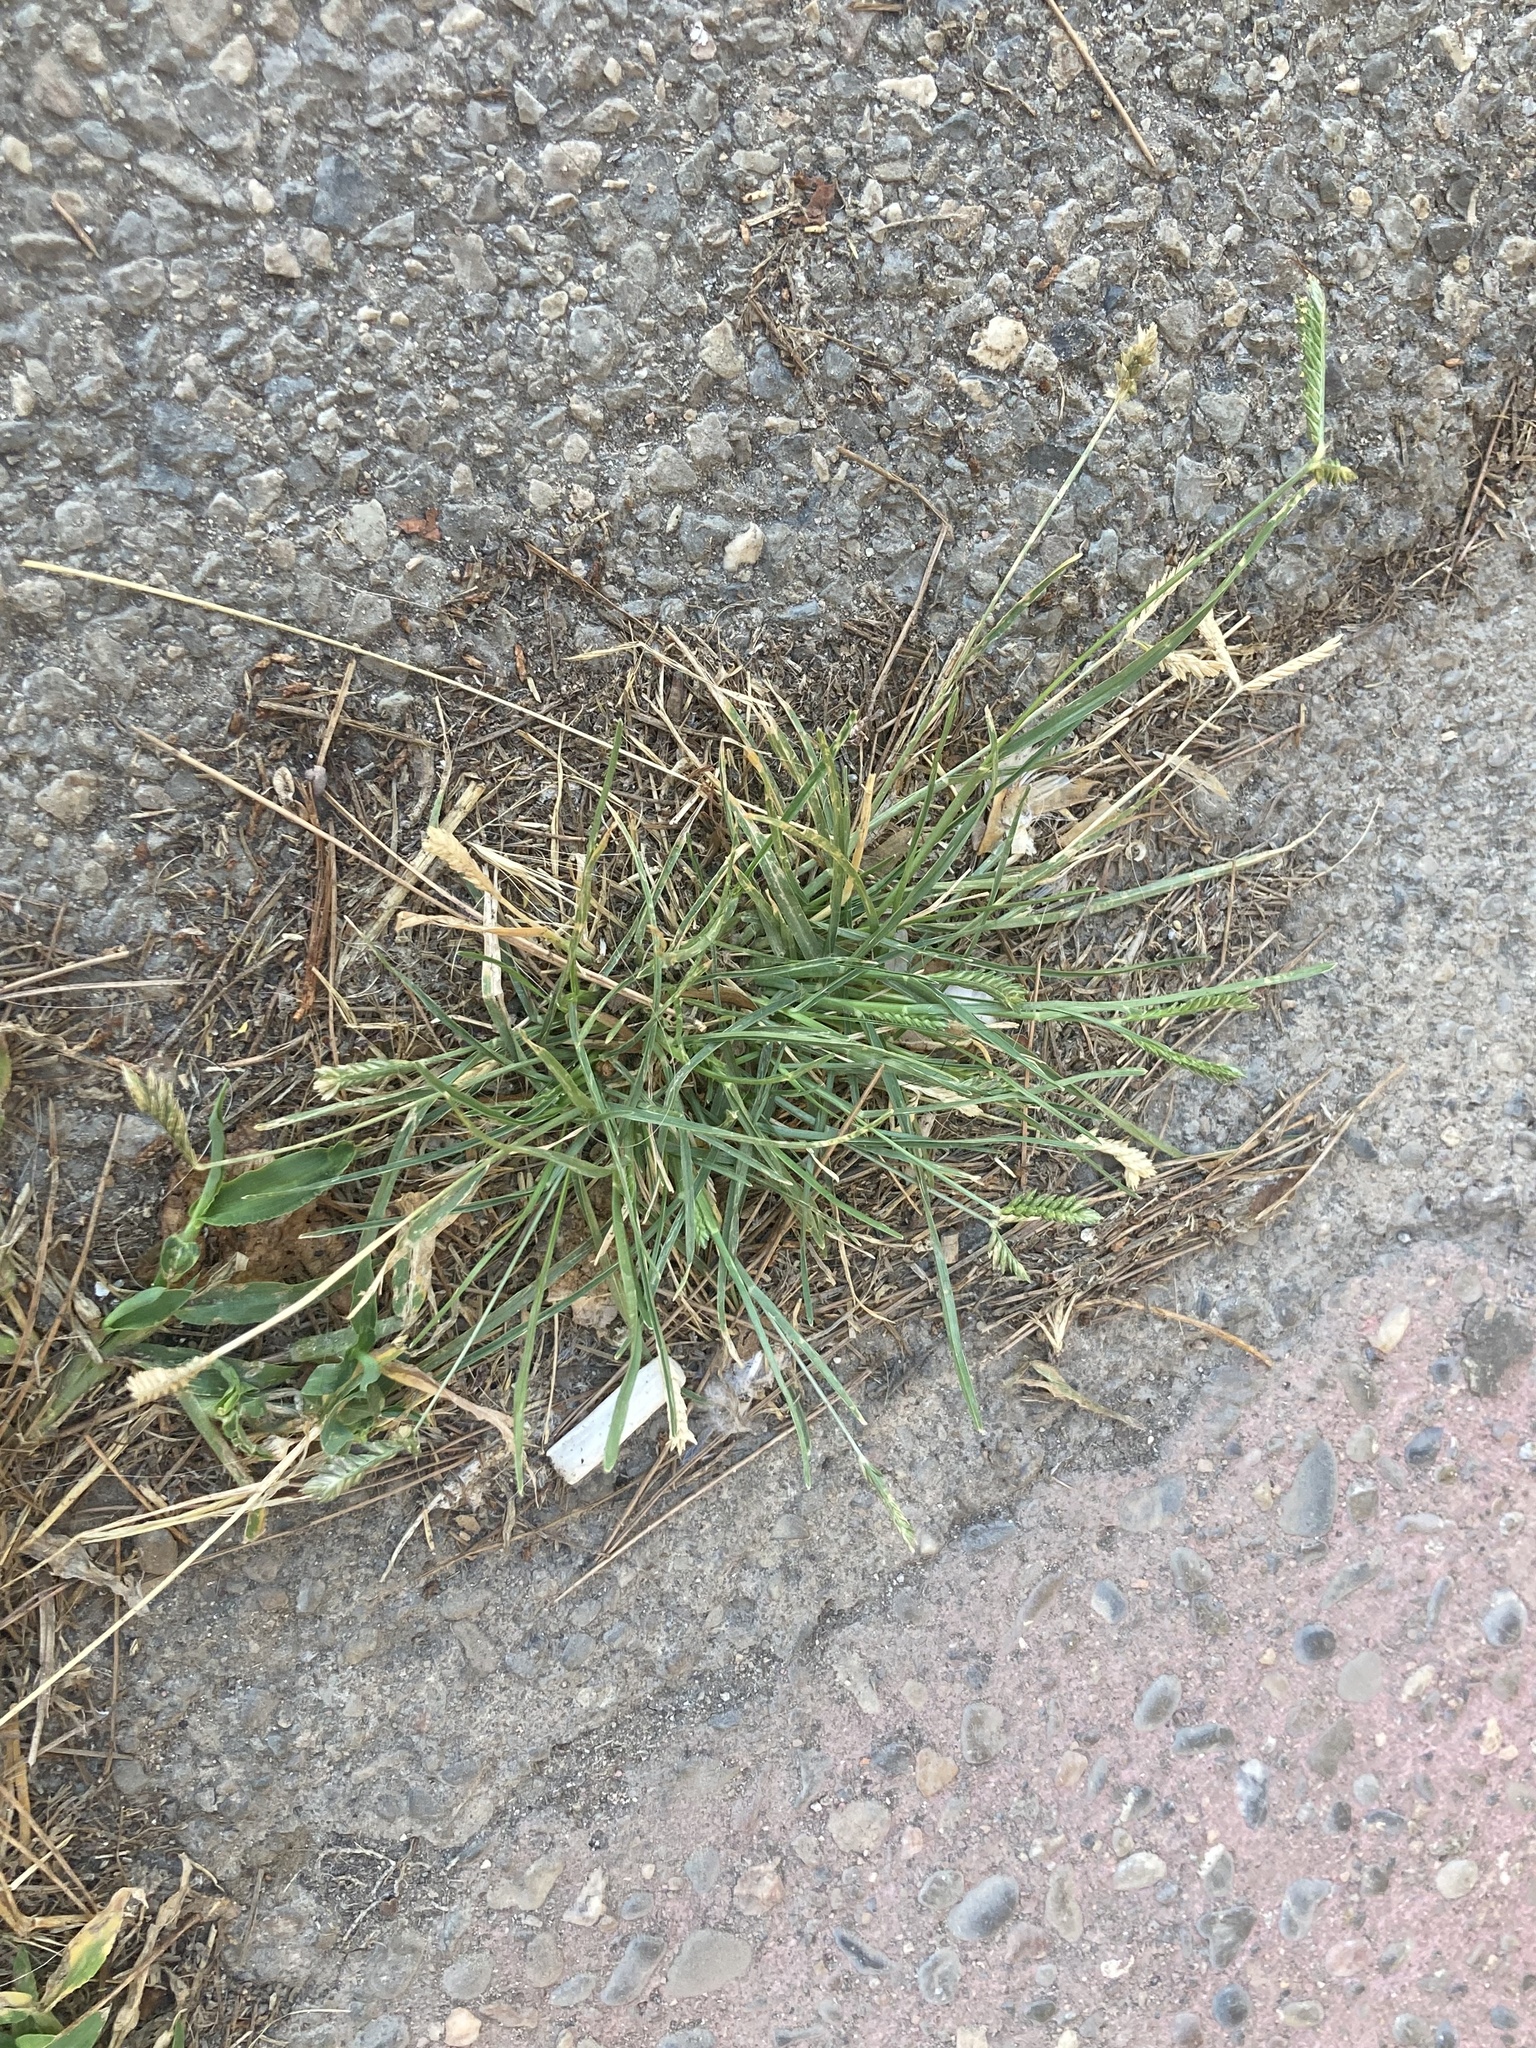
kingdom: Plantae
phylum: Tracheophyta
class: Liliopsida
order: Poales
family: Poaceae
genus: Eleusine
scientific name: Eleusine tristachya
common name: American yard-grass
